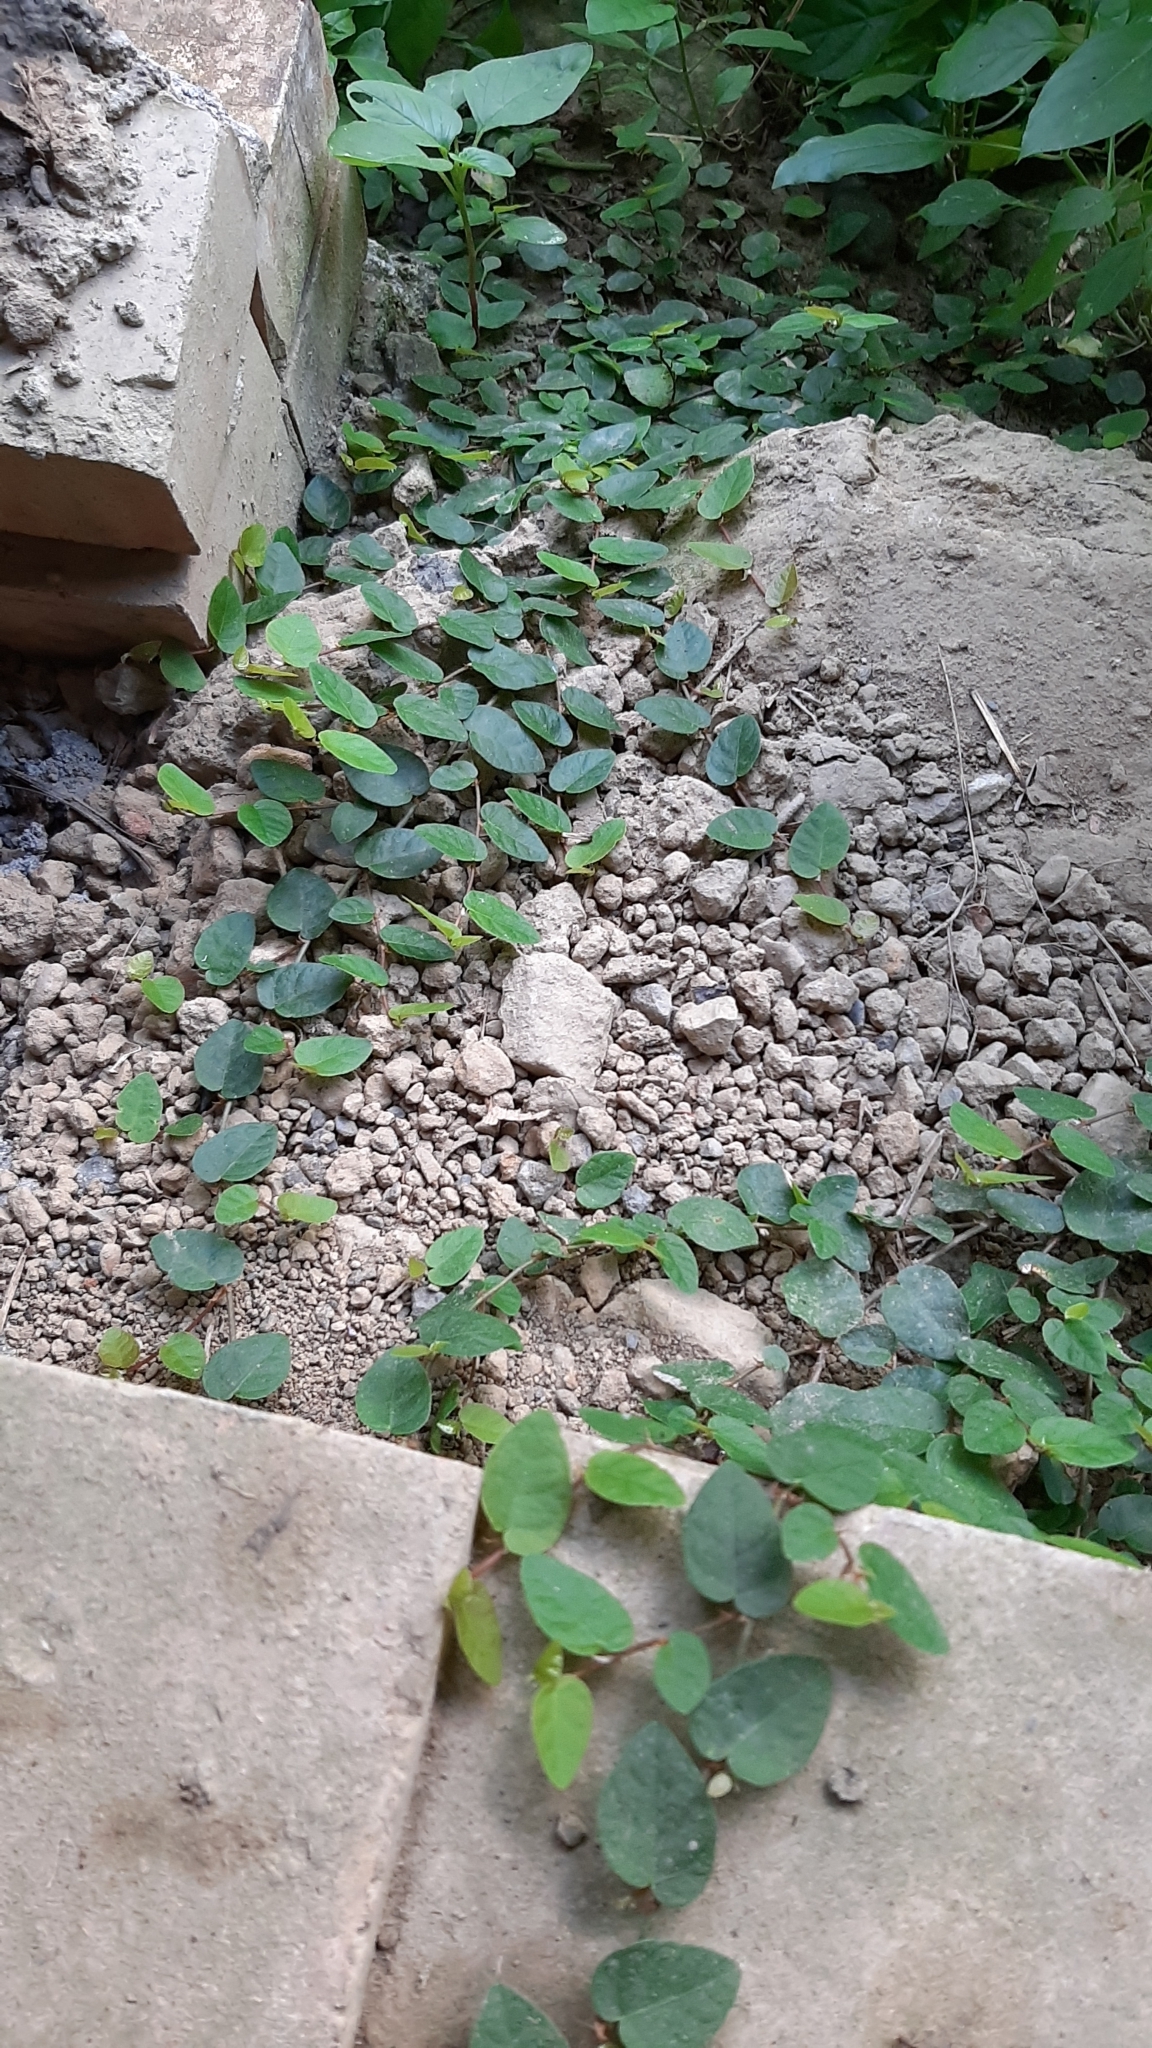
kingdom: Plantae
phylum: Tracheophyta
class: Magnoliopsida
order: Rosales
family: Moraceae
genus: Ficus
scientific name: Ficus pumila
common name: Climbingfig
